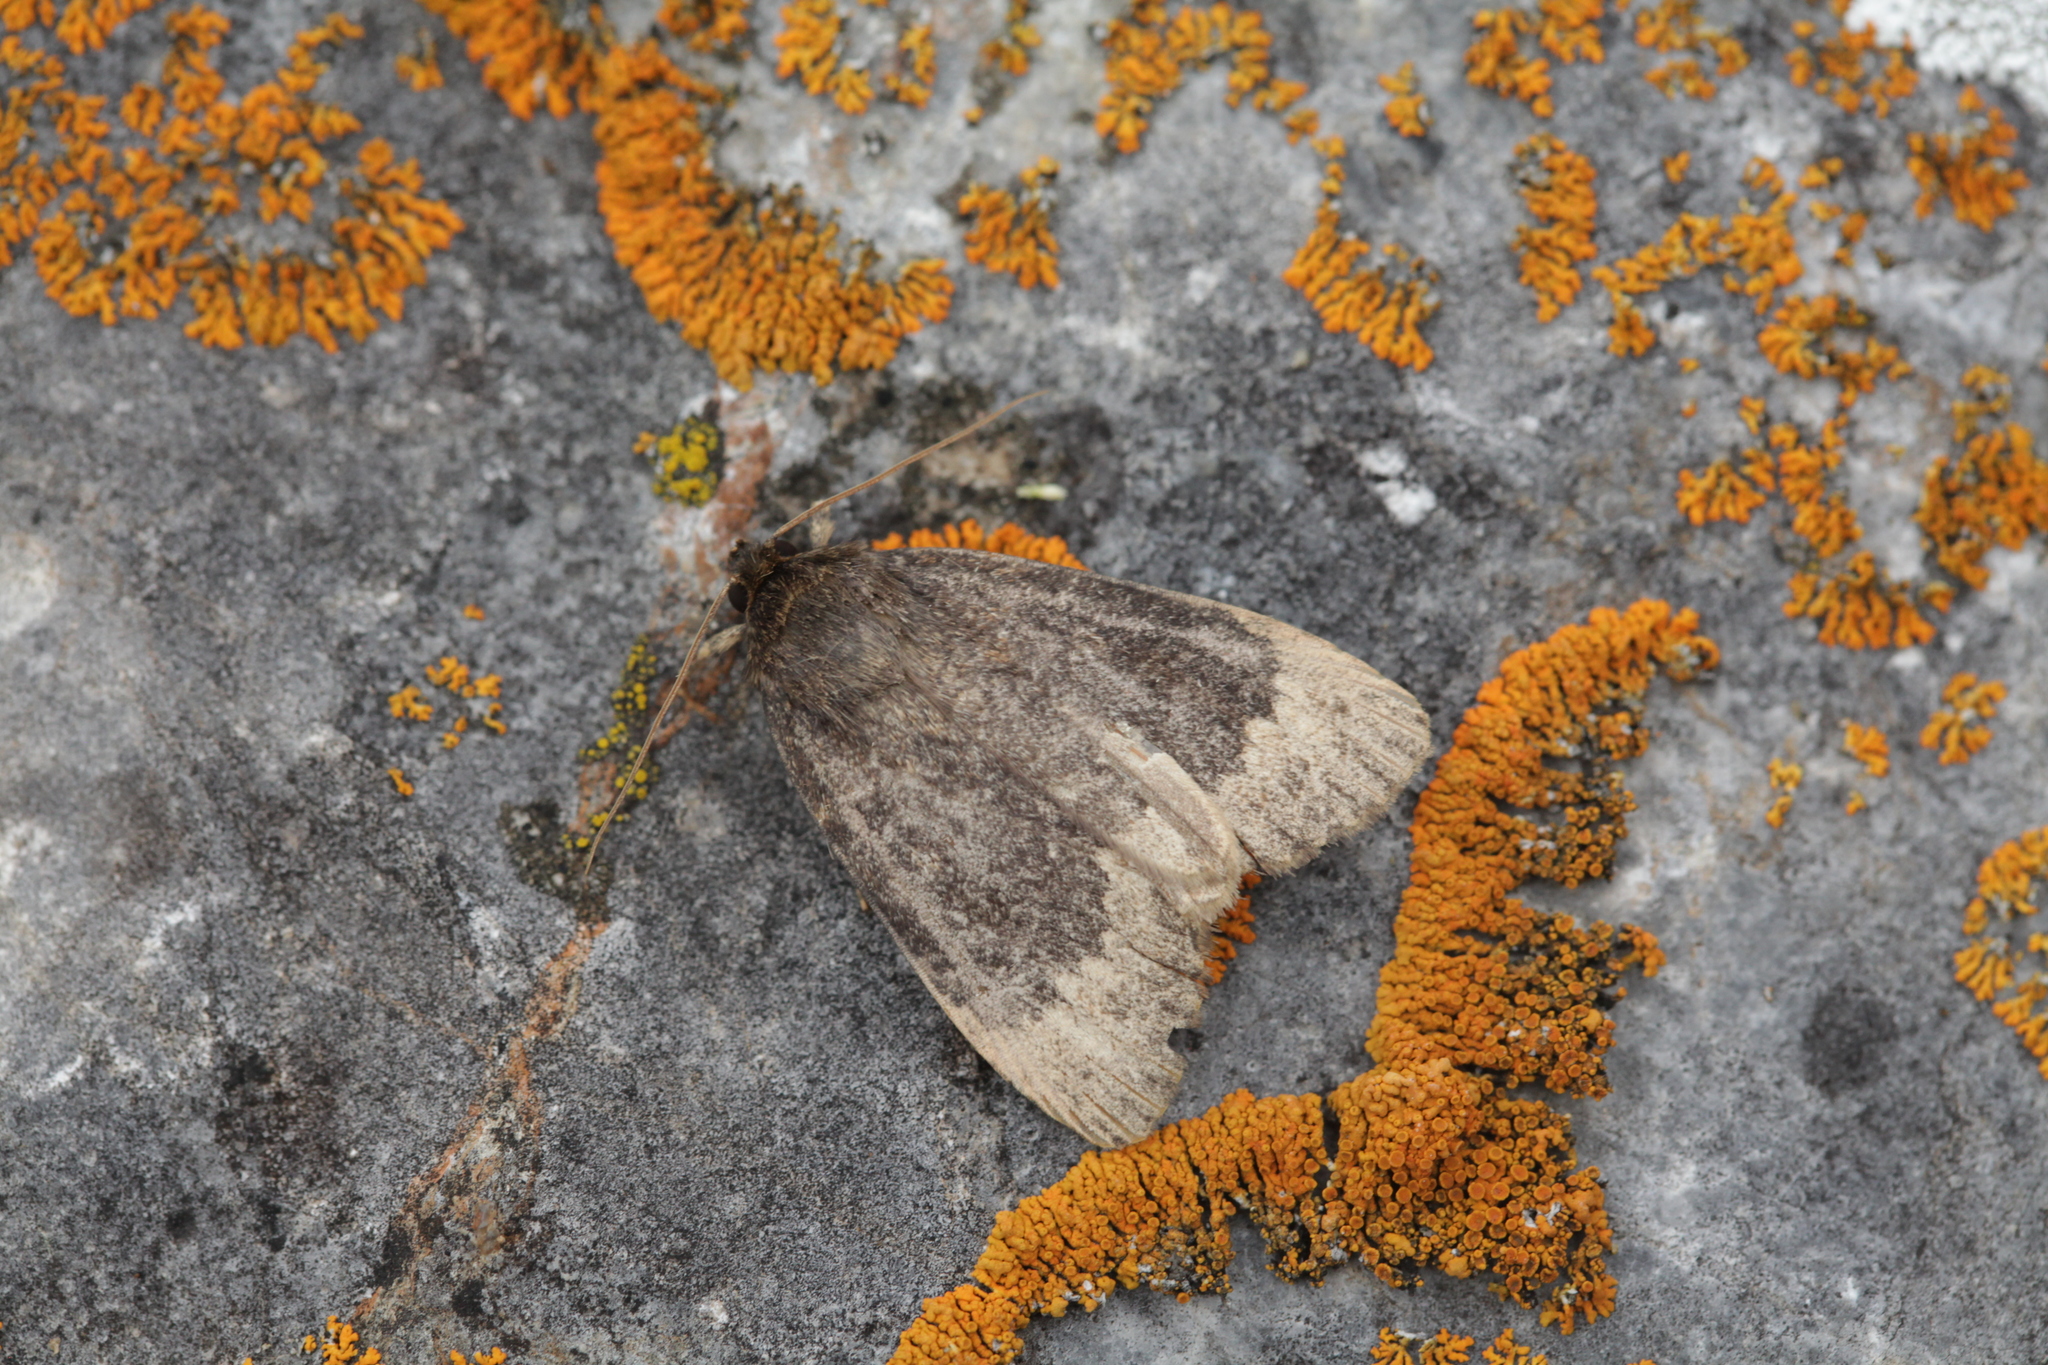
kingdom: Animalia
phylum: Arthropoda
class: Insecta
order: Lepidoptera
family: Noctuidae
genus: Amphipyra
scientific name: Amphipyra perflua
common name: Larger pale-tipped black moth
